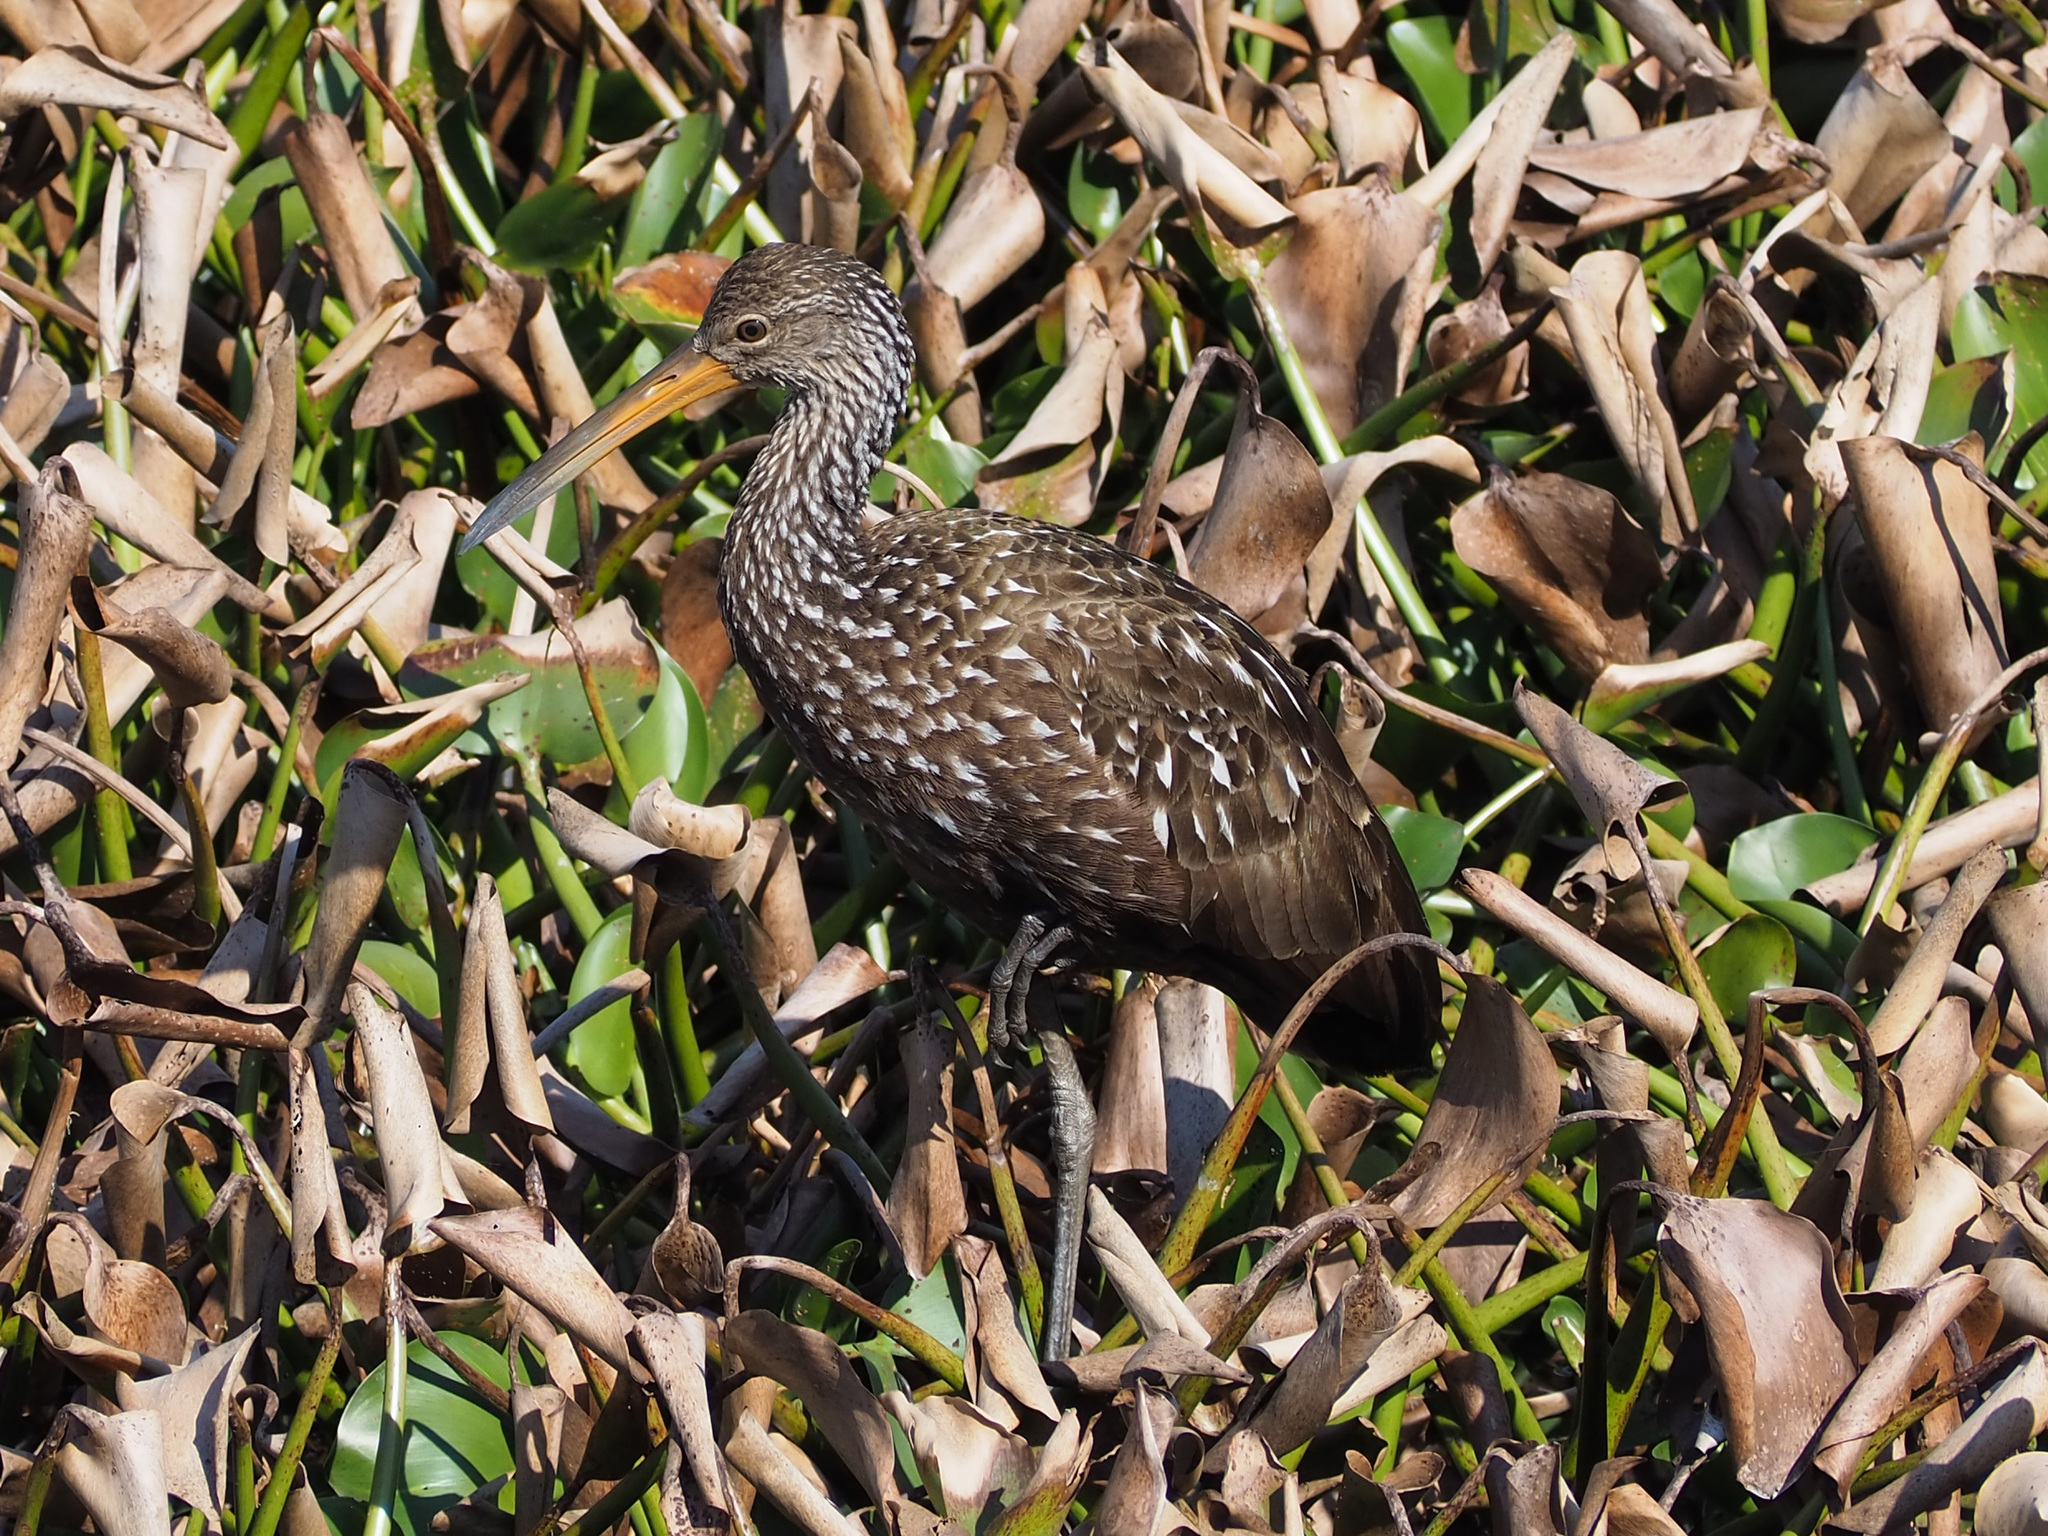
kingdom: Animalia
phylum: Chordata
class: Aves
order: Gruiformes
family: Aramidae
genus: Aramus
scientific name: Aramus guarauna
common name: Limpkin
